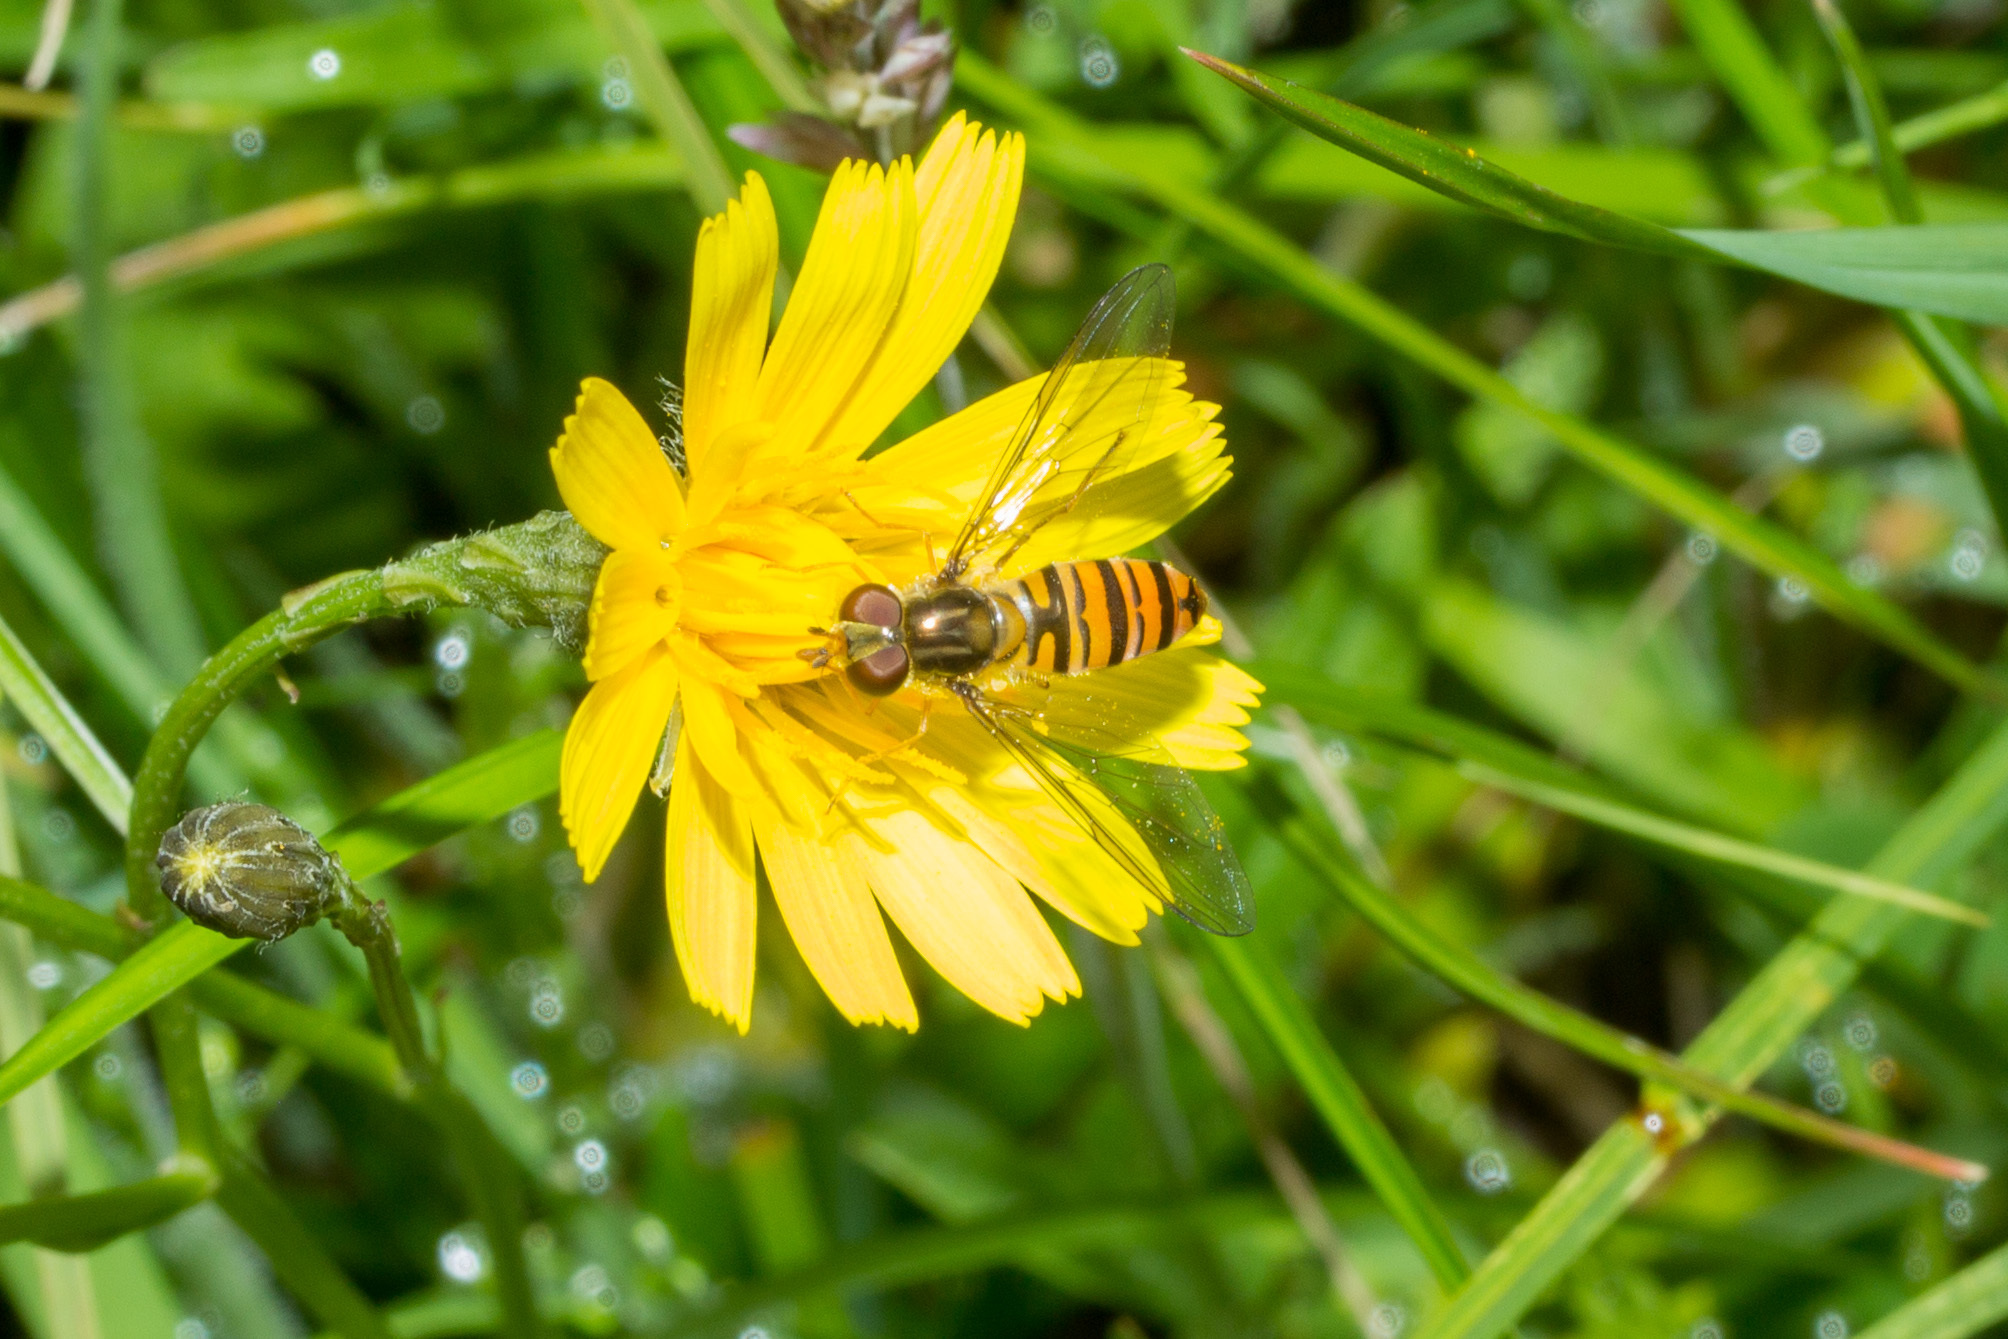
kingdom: Animalia
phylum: Arthropoda
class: Insecta
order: Diptera
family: Syrphidae
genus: Episyrphus
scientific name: Episyrphus balteatus
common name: Marmalade hoverfly
